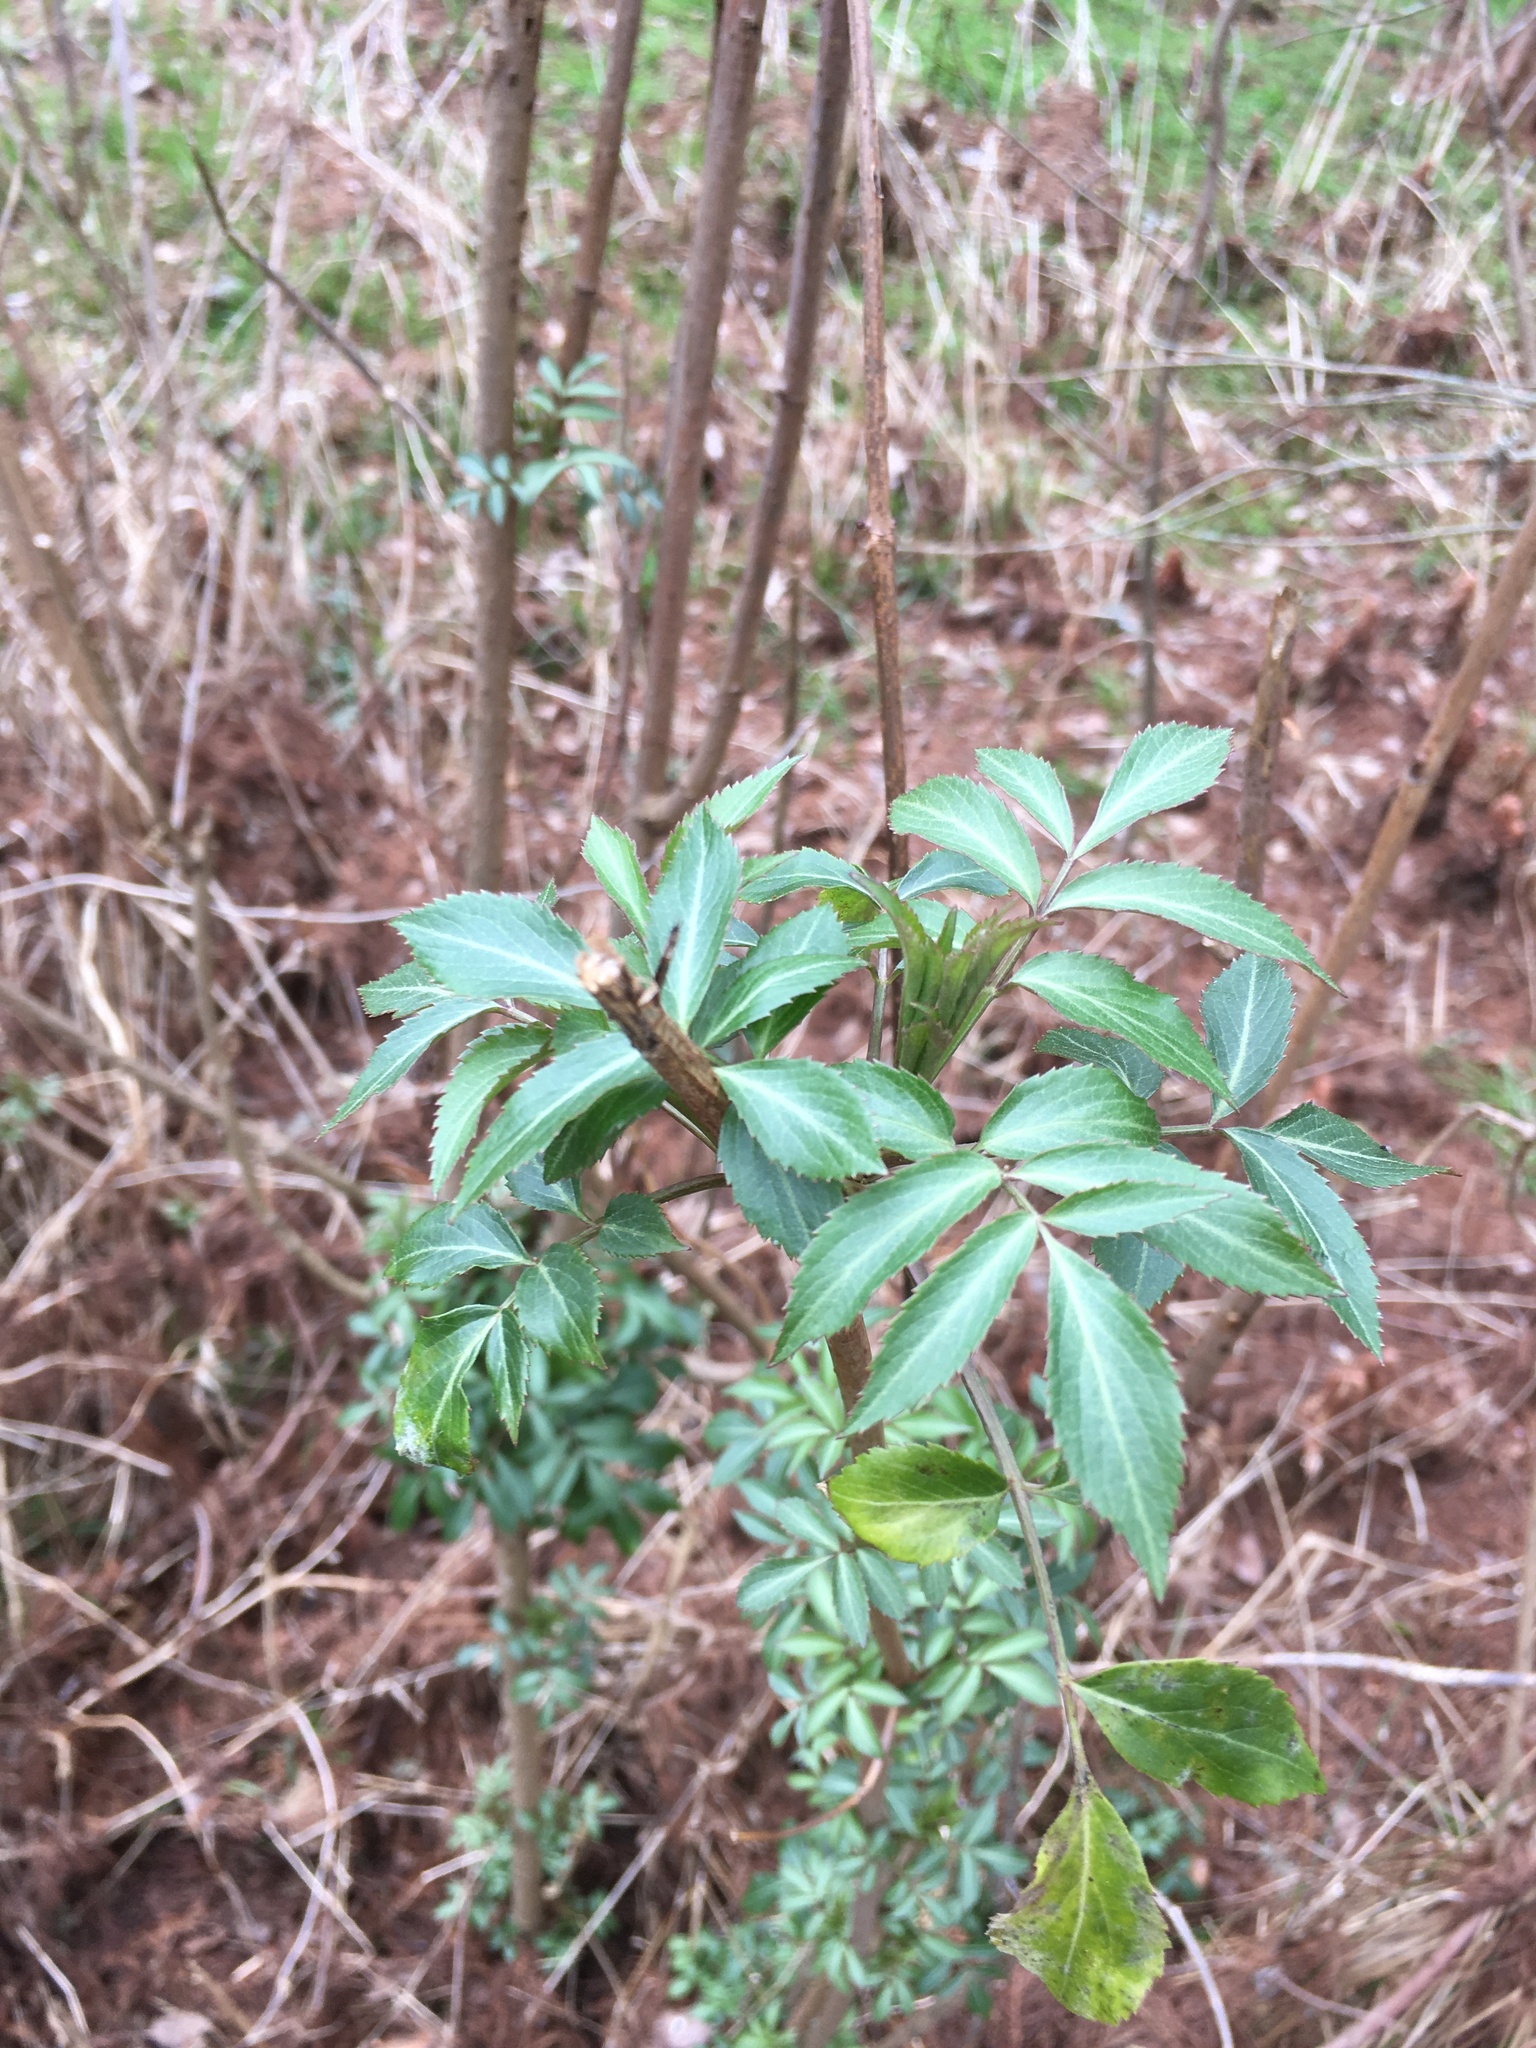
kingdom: Plantae
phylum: Tracheophyta
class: Magnoliopsida
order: Dipsacales
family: Viburnaceae
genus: Sambucus
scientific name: Sambucus canadensis
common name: American elder
